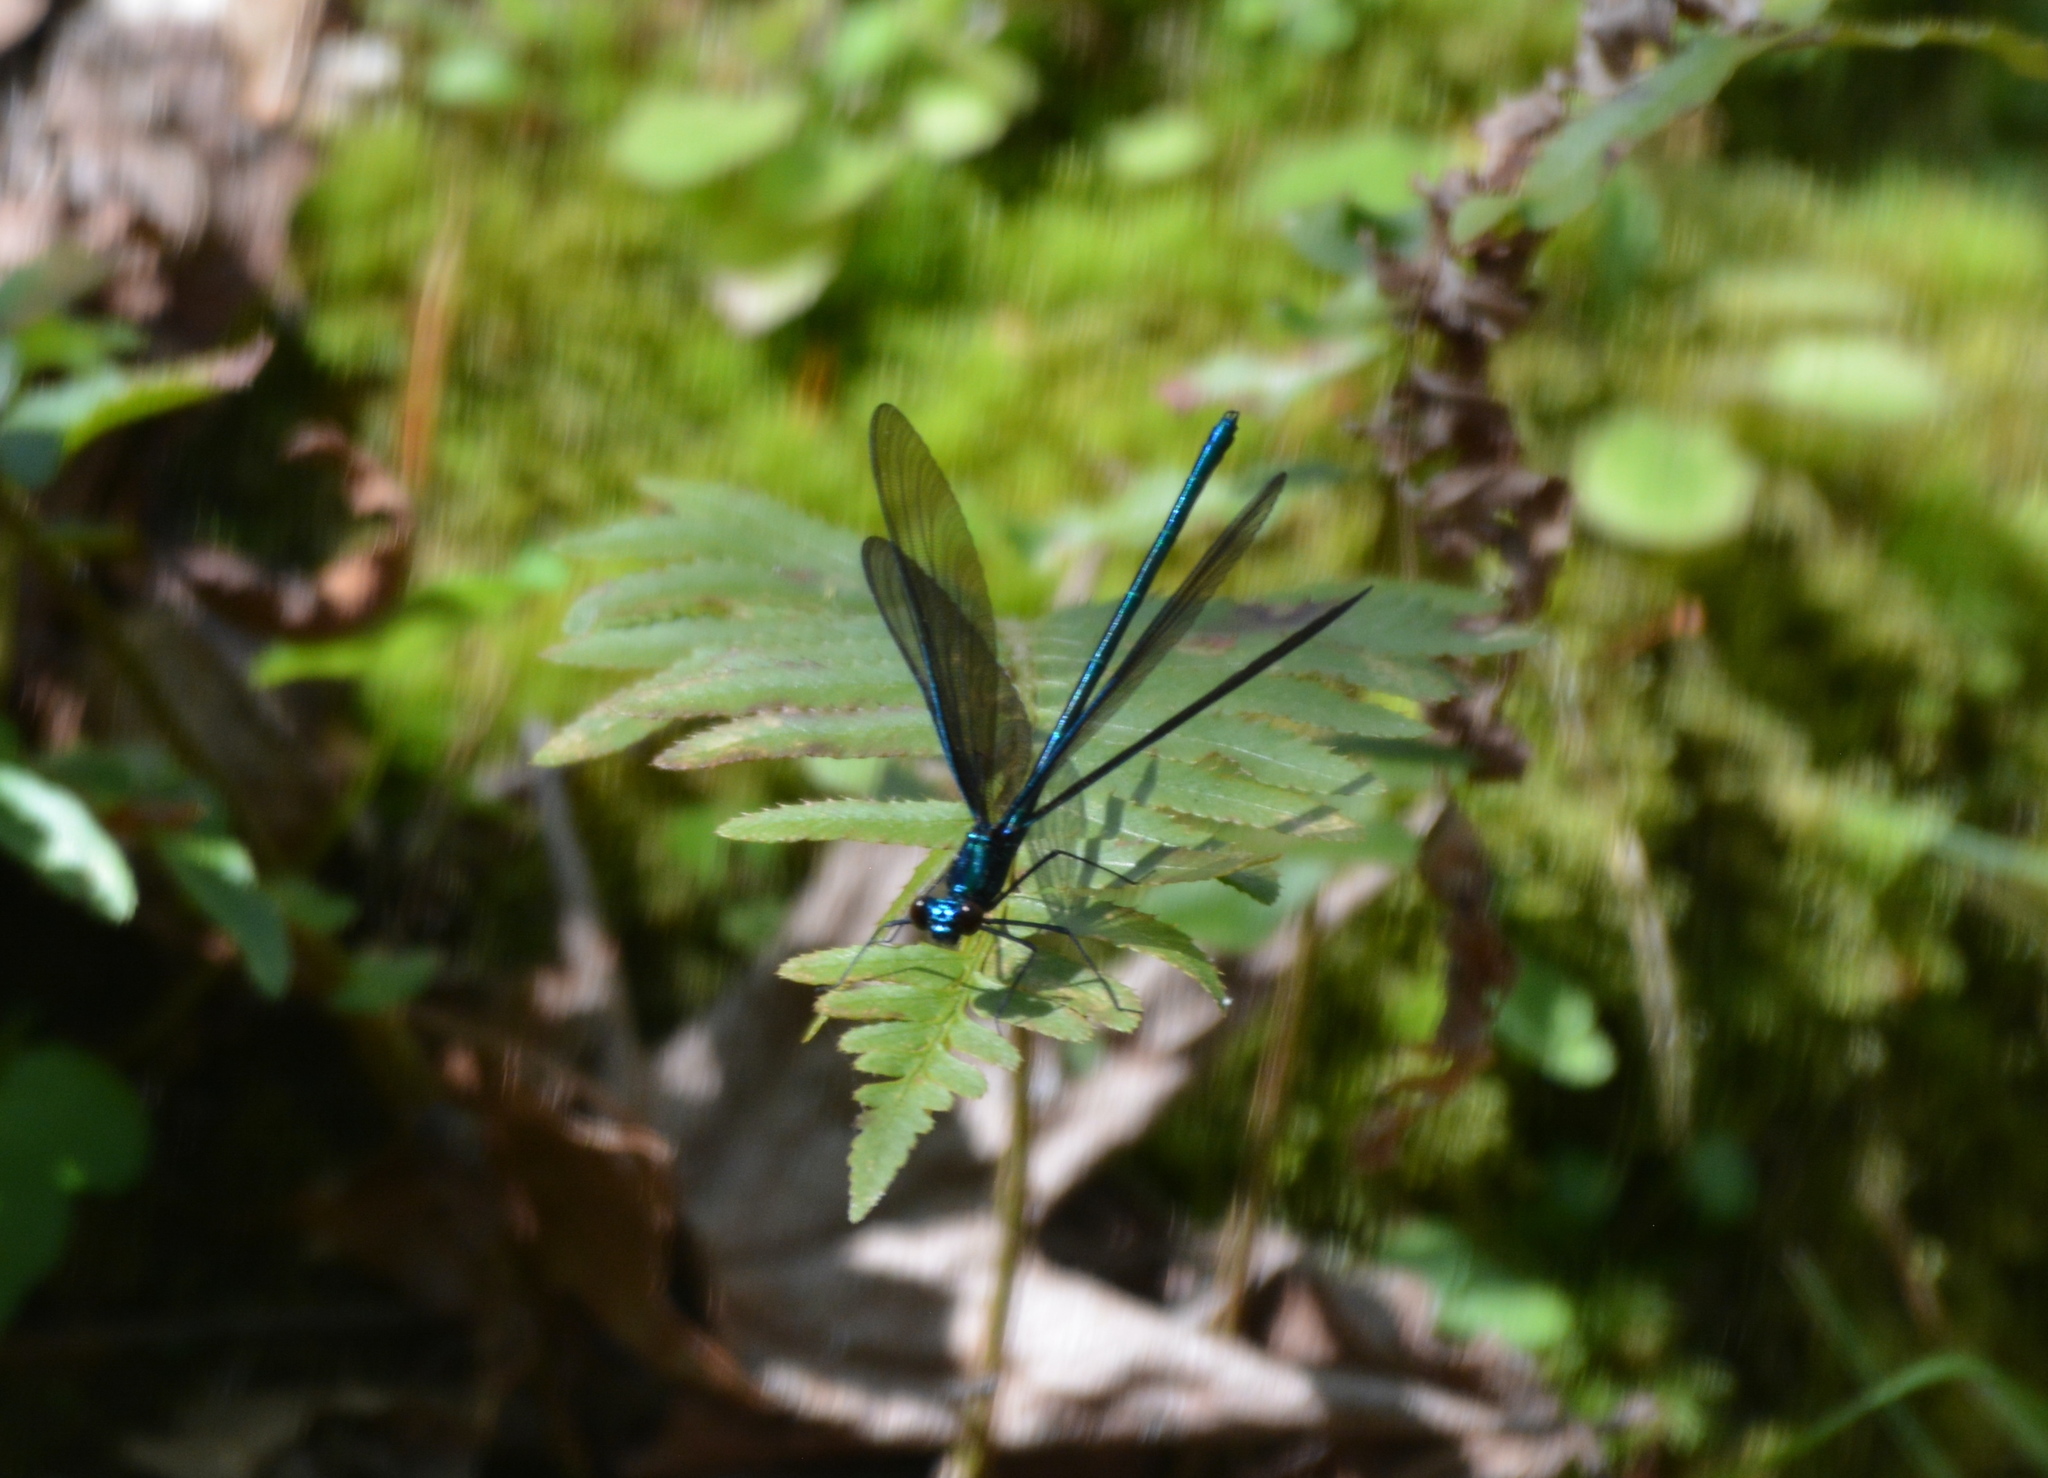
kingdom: Animalia
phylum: Arthropoda
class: Insecta
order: Odonata
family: Calopterygidae
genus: Calopteryx
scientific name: Calopteryx maculata
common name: Ebony jewelwing
